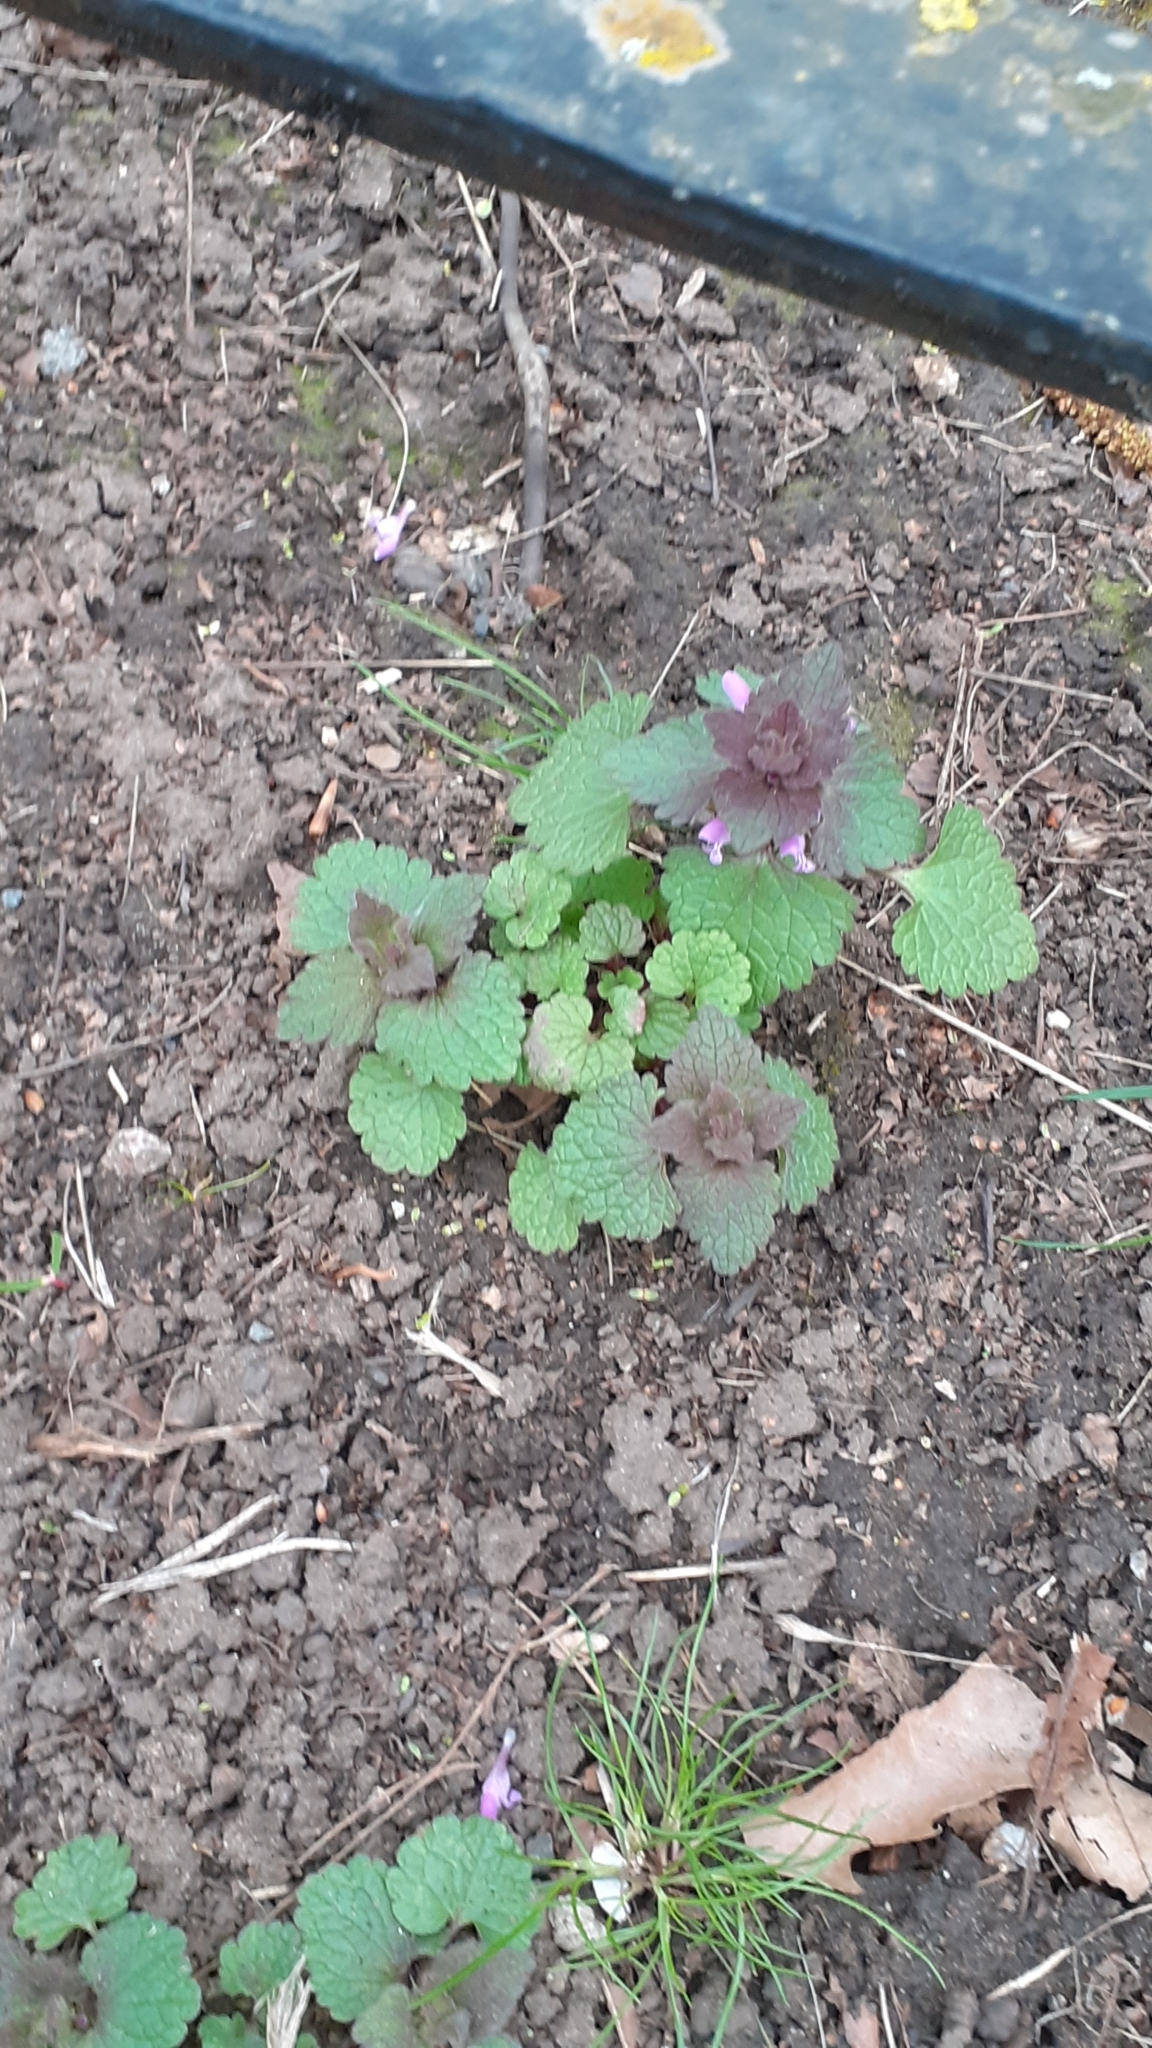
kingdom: Plantae
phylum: Tracheophyta
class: Magnoliopsida
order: Lamiales
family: Lamiaceae
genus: Lamium
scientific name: Lamium purpureum
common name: Red dead-nettle
